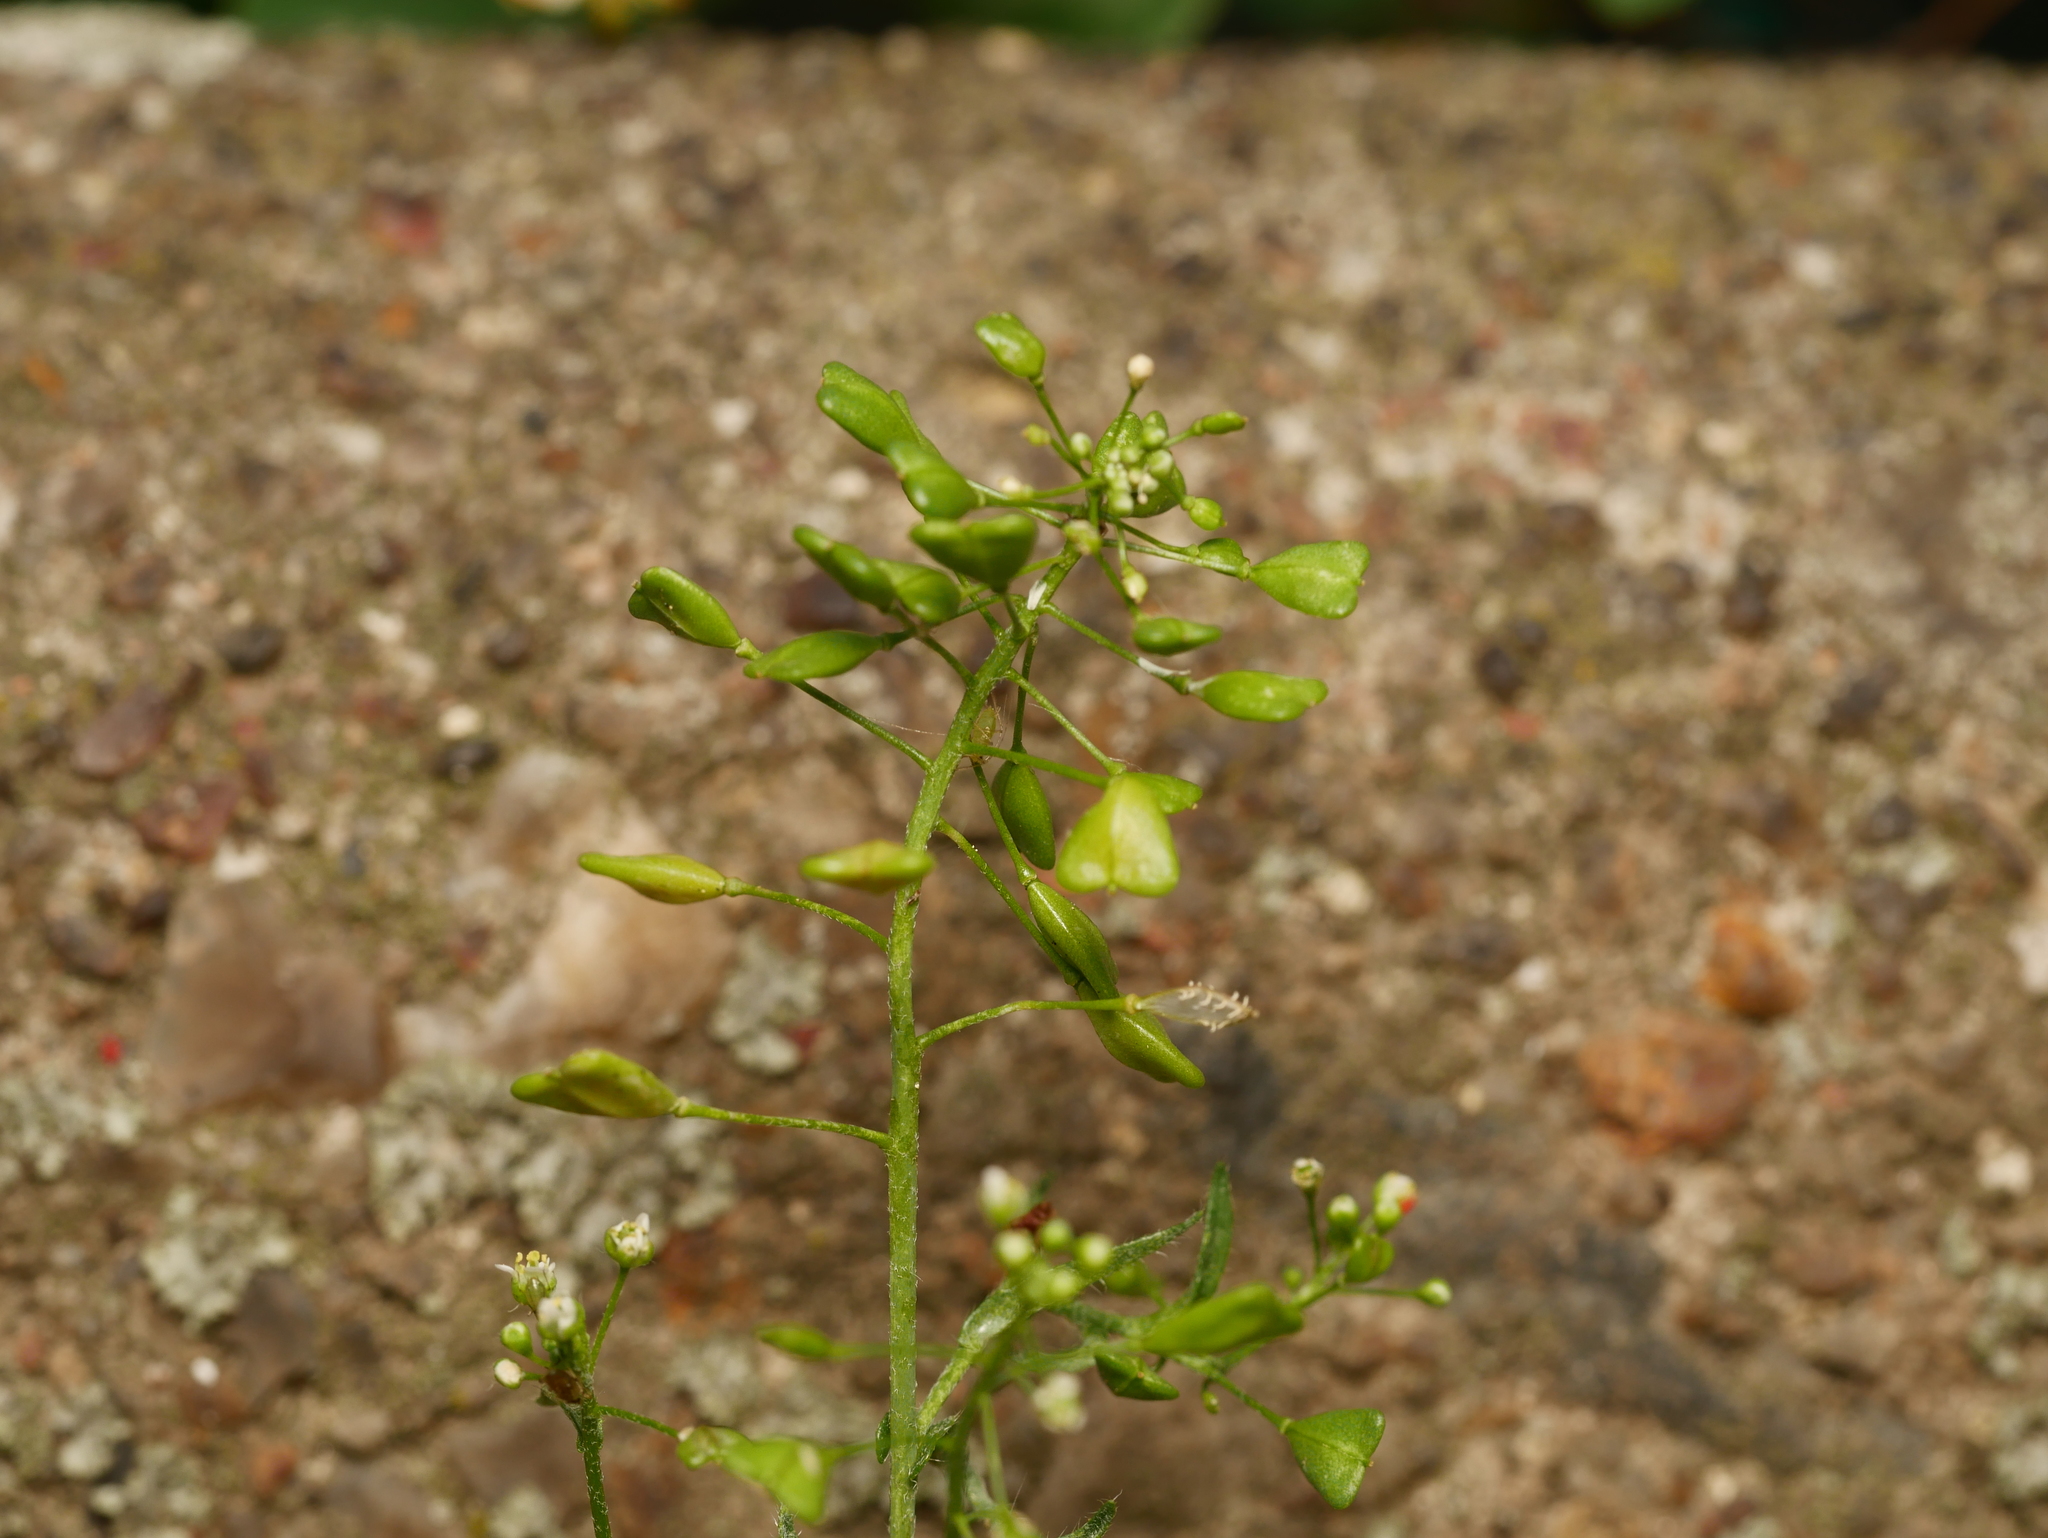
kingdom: Plantae
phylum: Tracheophyta
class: Magnoliopsida
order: Brassicales
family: Brassicaceae
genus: Capsella
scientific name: Capsella bursa-pastoris
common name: Shepherd's purse
